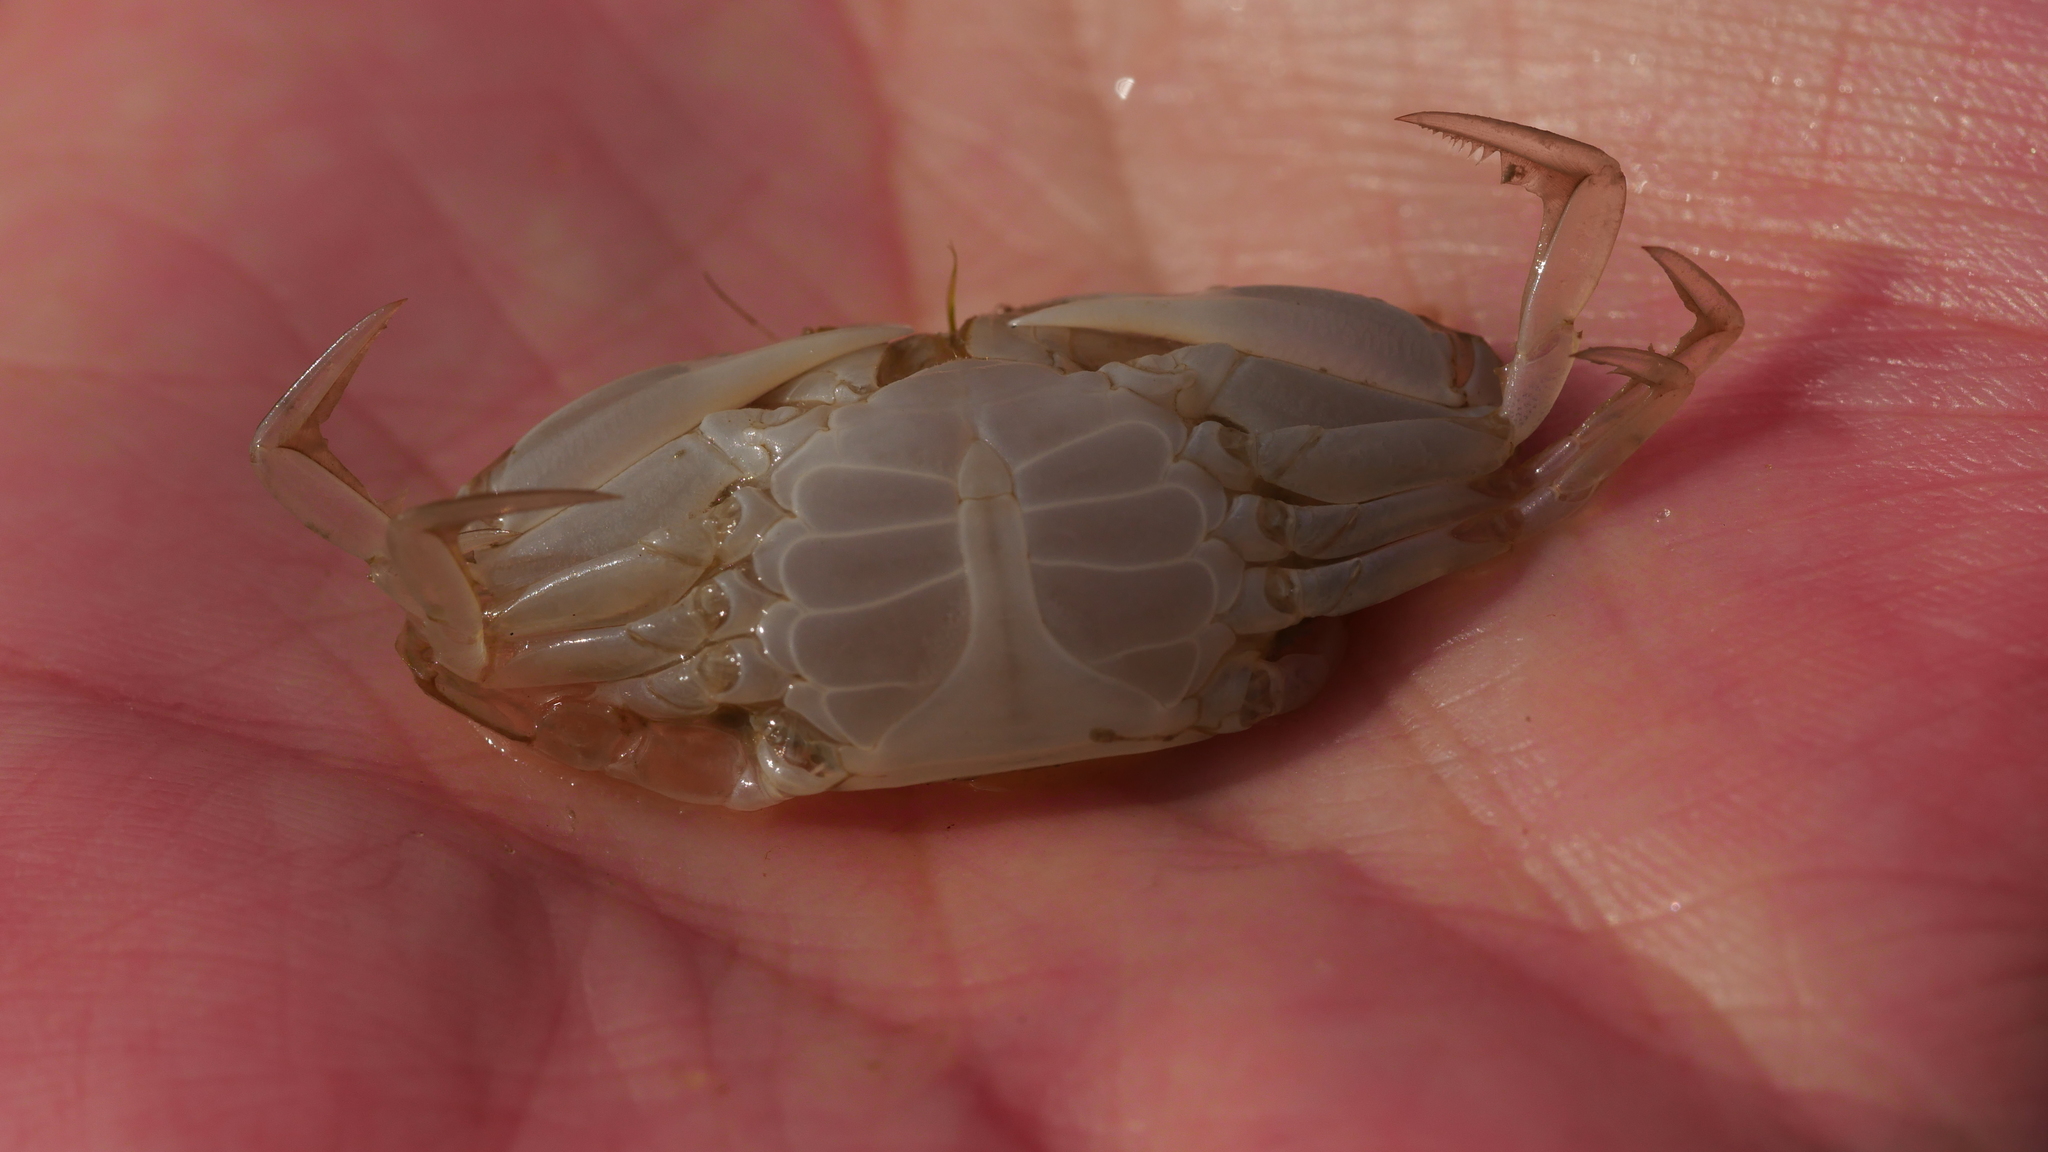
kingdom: Animalia
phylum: Arthropoda
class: Malacostraca
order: Decapoda
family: Portunidae
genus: Callinectes
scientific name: Callinectes sapidus
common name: Blue crab
